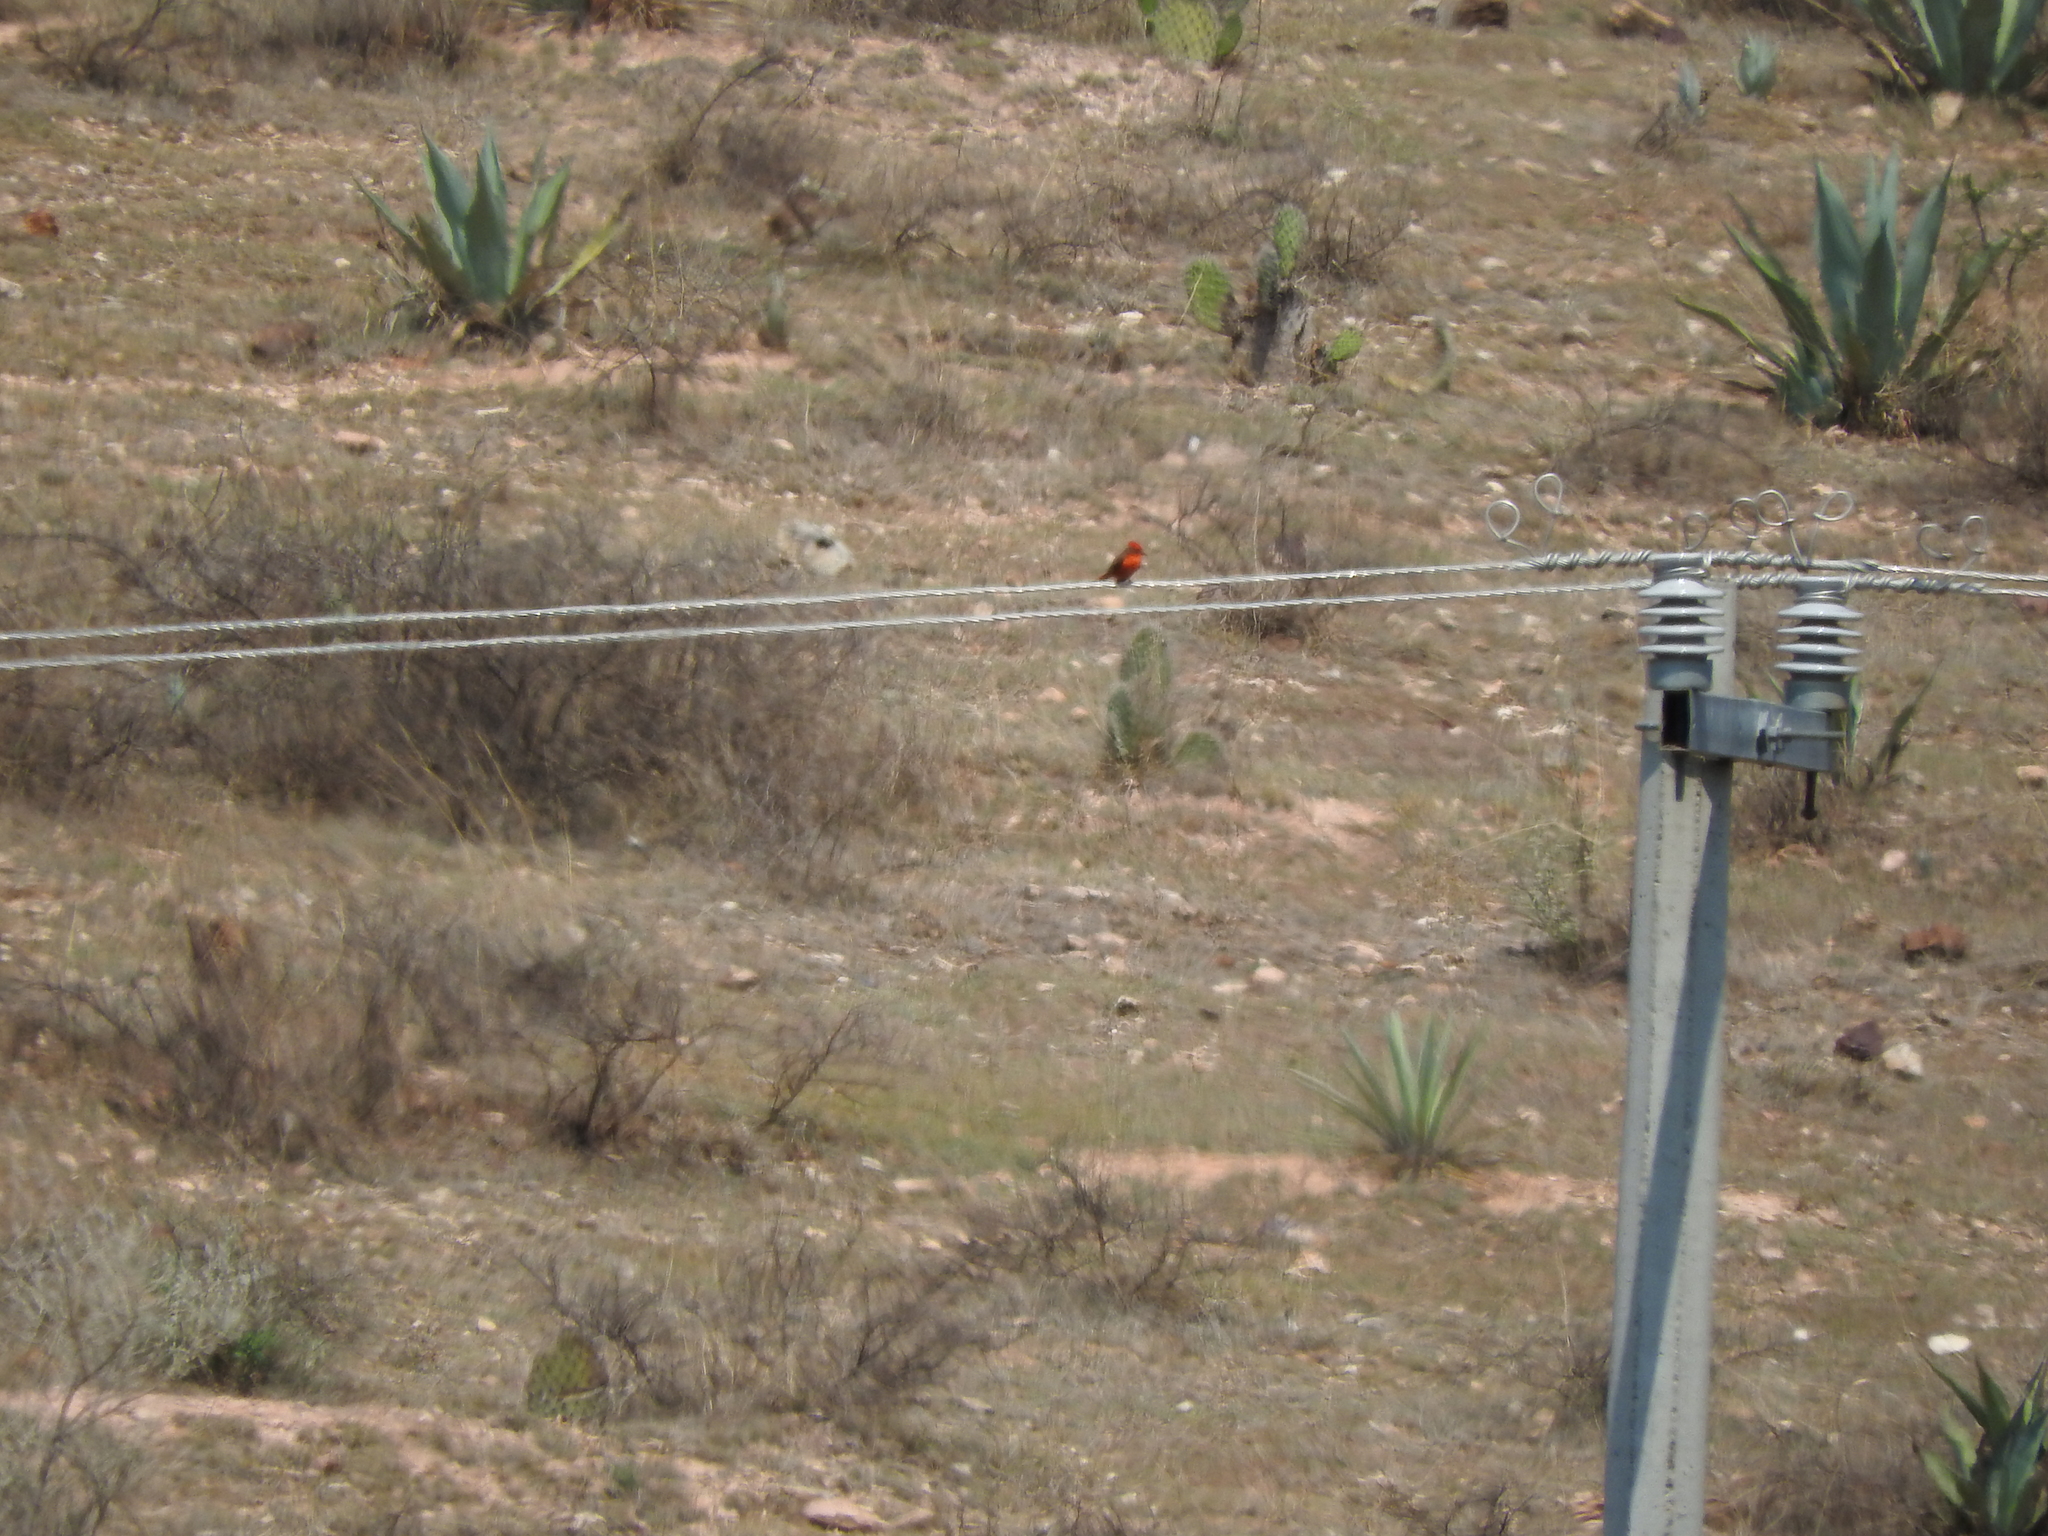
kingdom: Animalia
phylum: Chordata
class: Aves
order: Passeriformes
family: Tyrannidae
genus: Pyrocephalus
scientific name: Pyrocephalus rubinus
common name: Vermilion flycatcher
